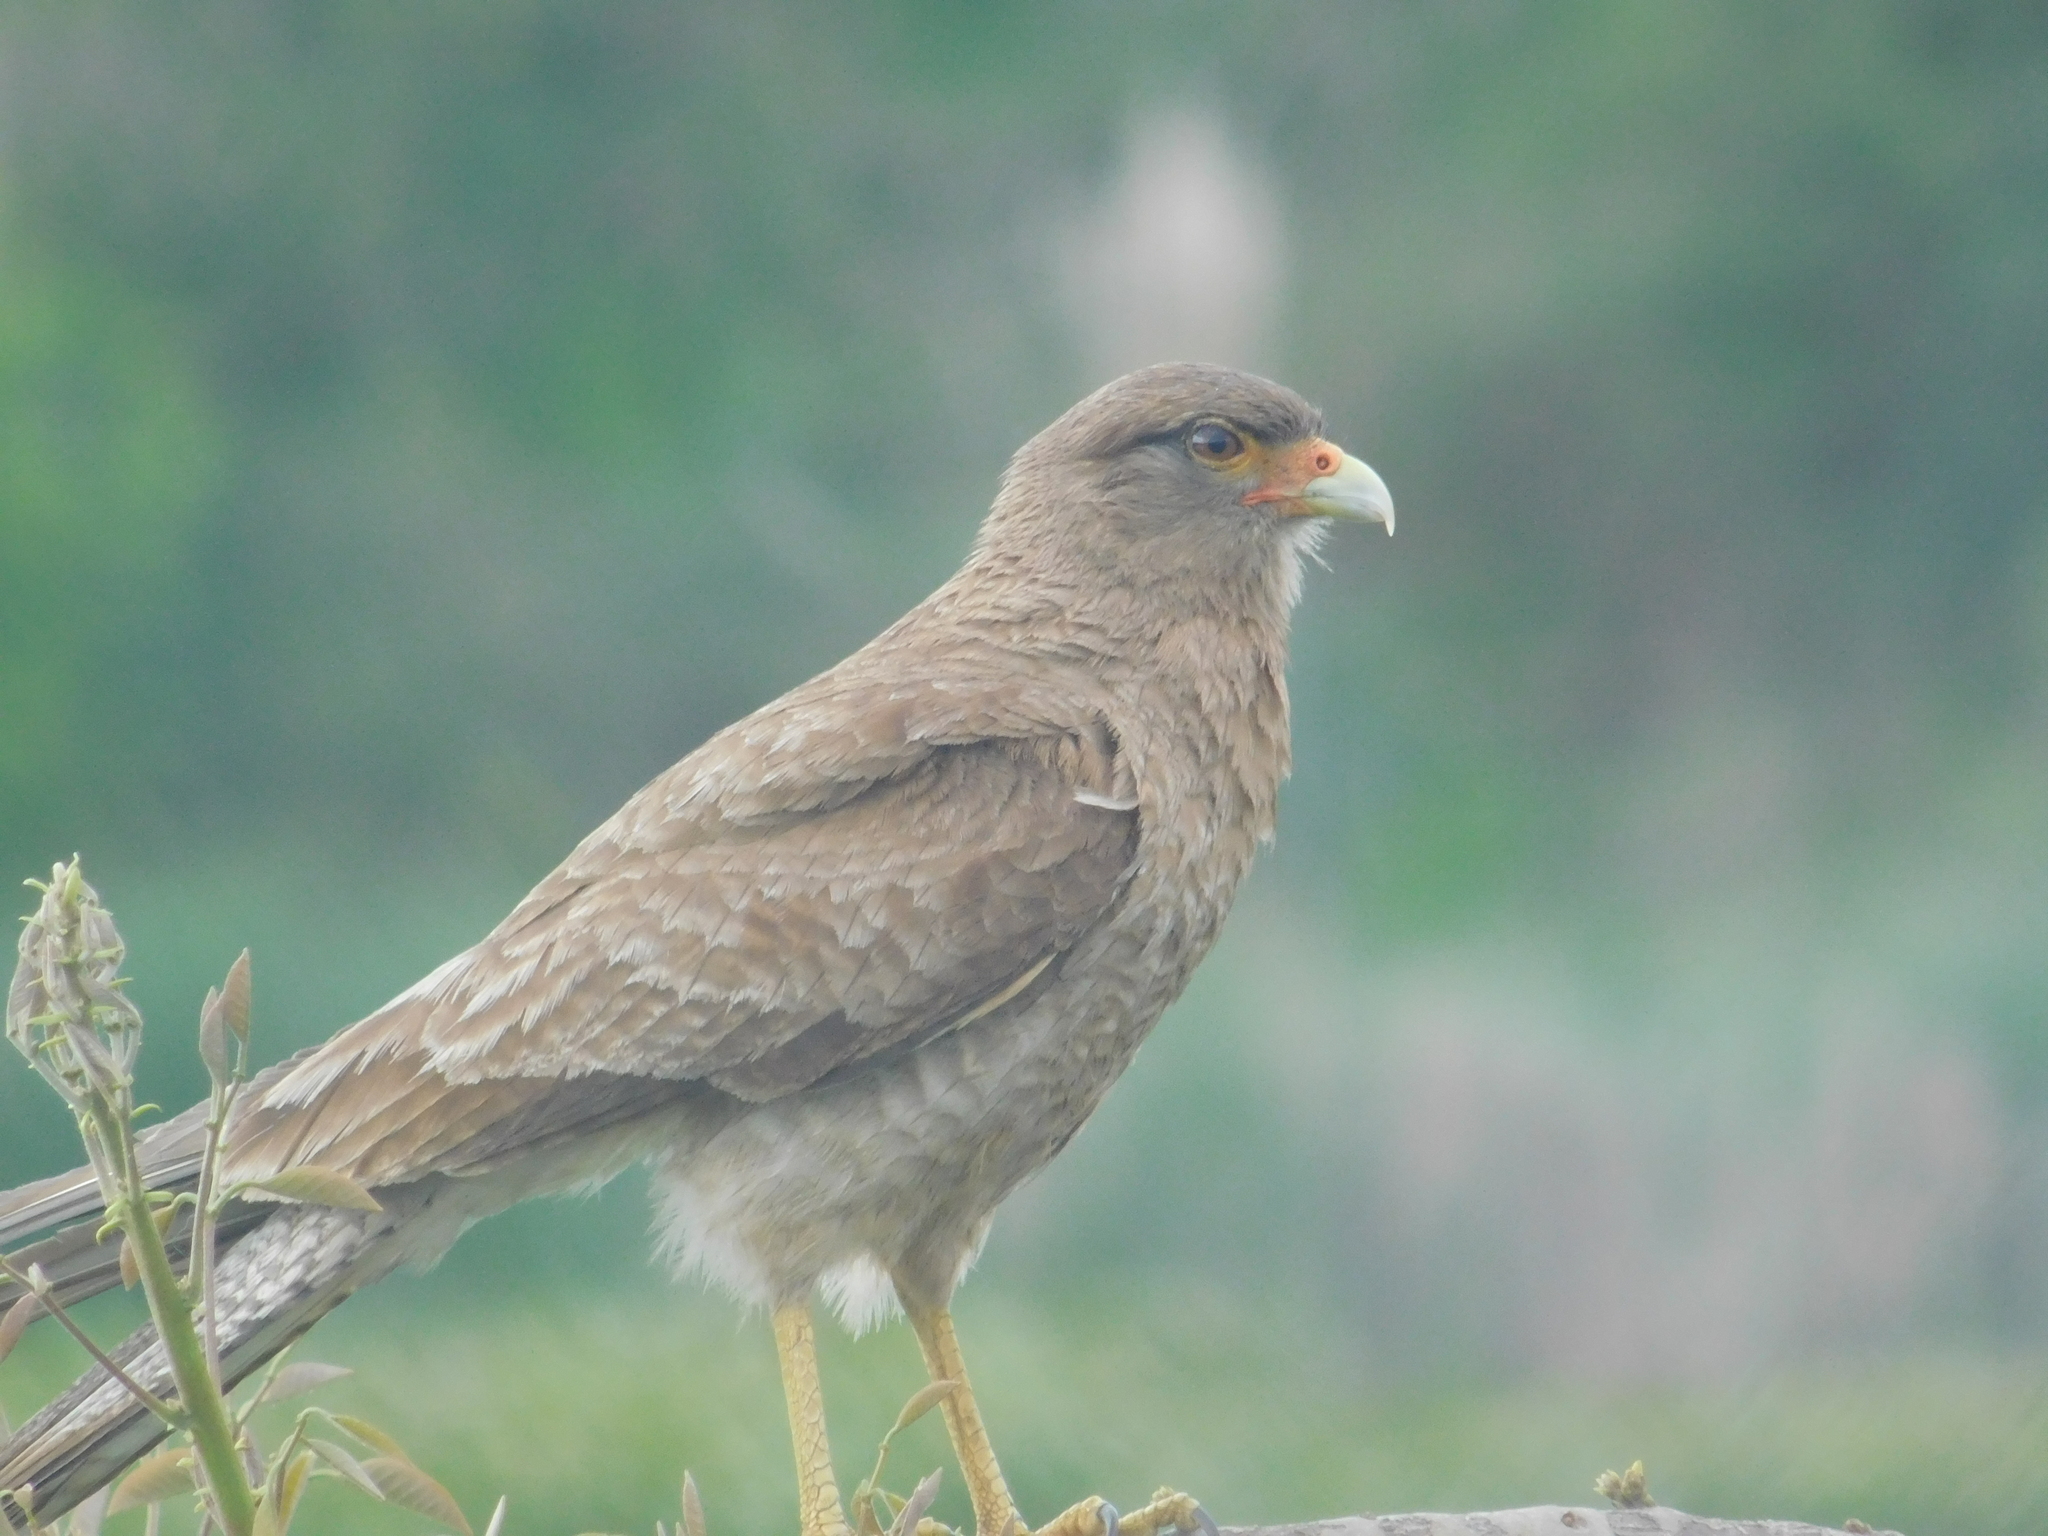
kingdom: Animalia
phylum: Chordata
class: Aves
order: Falconiformes
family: Falconidae
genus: Daptrius
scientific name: Daptrius
